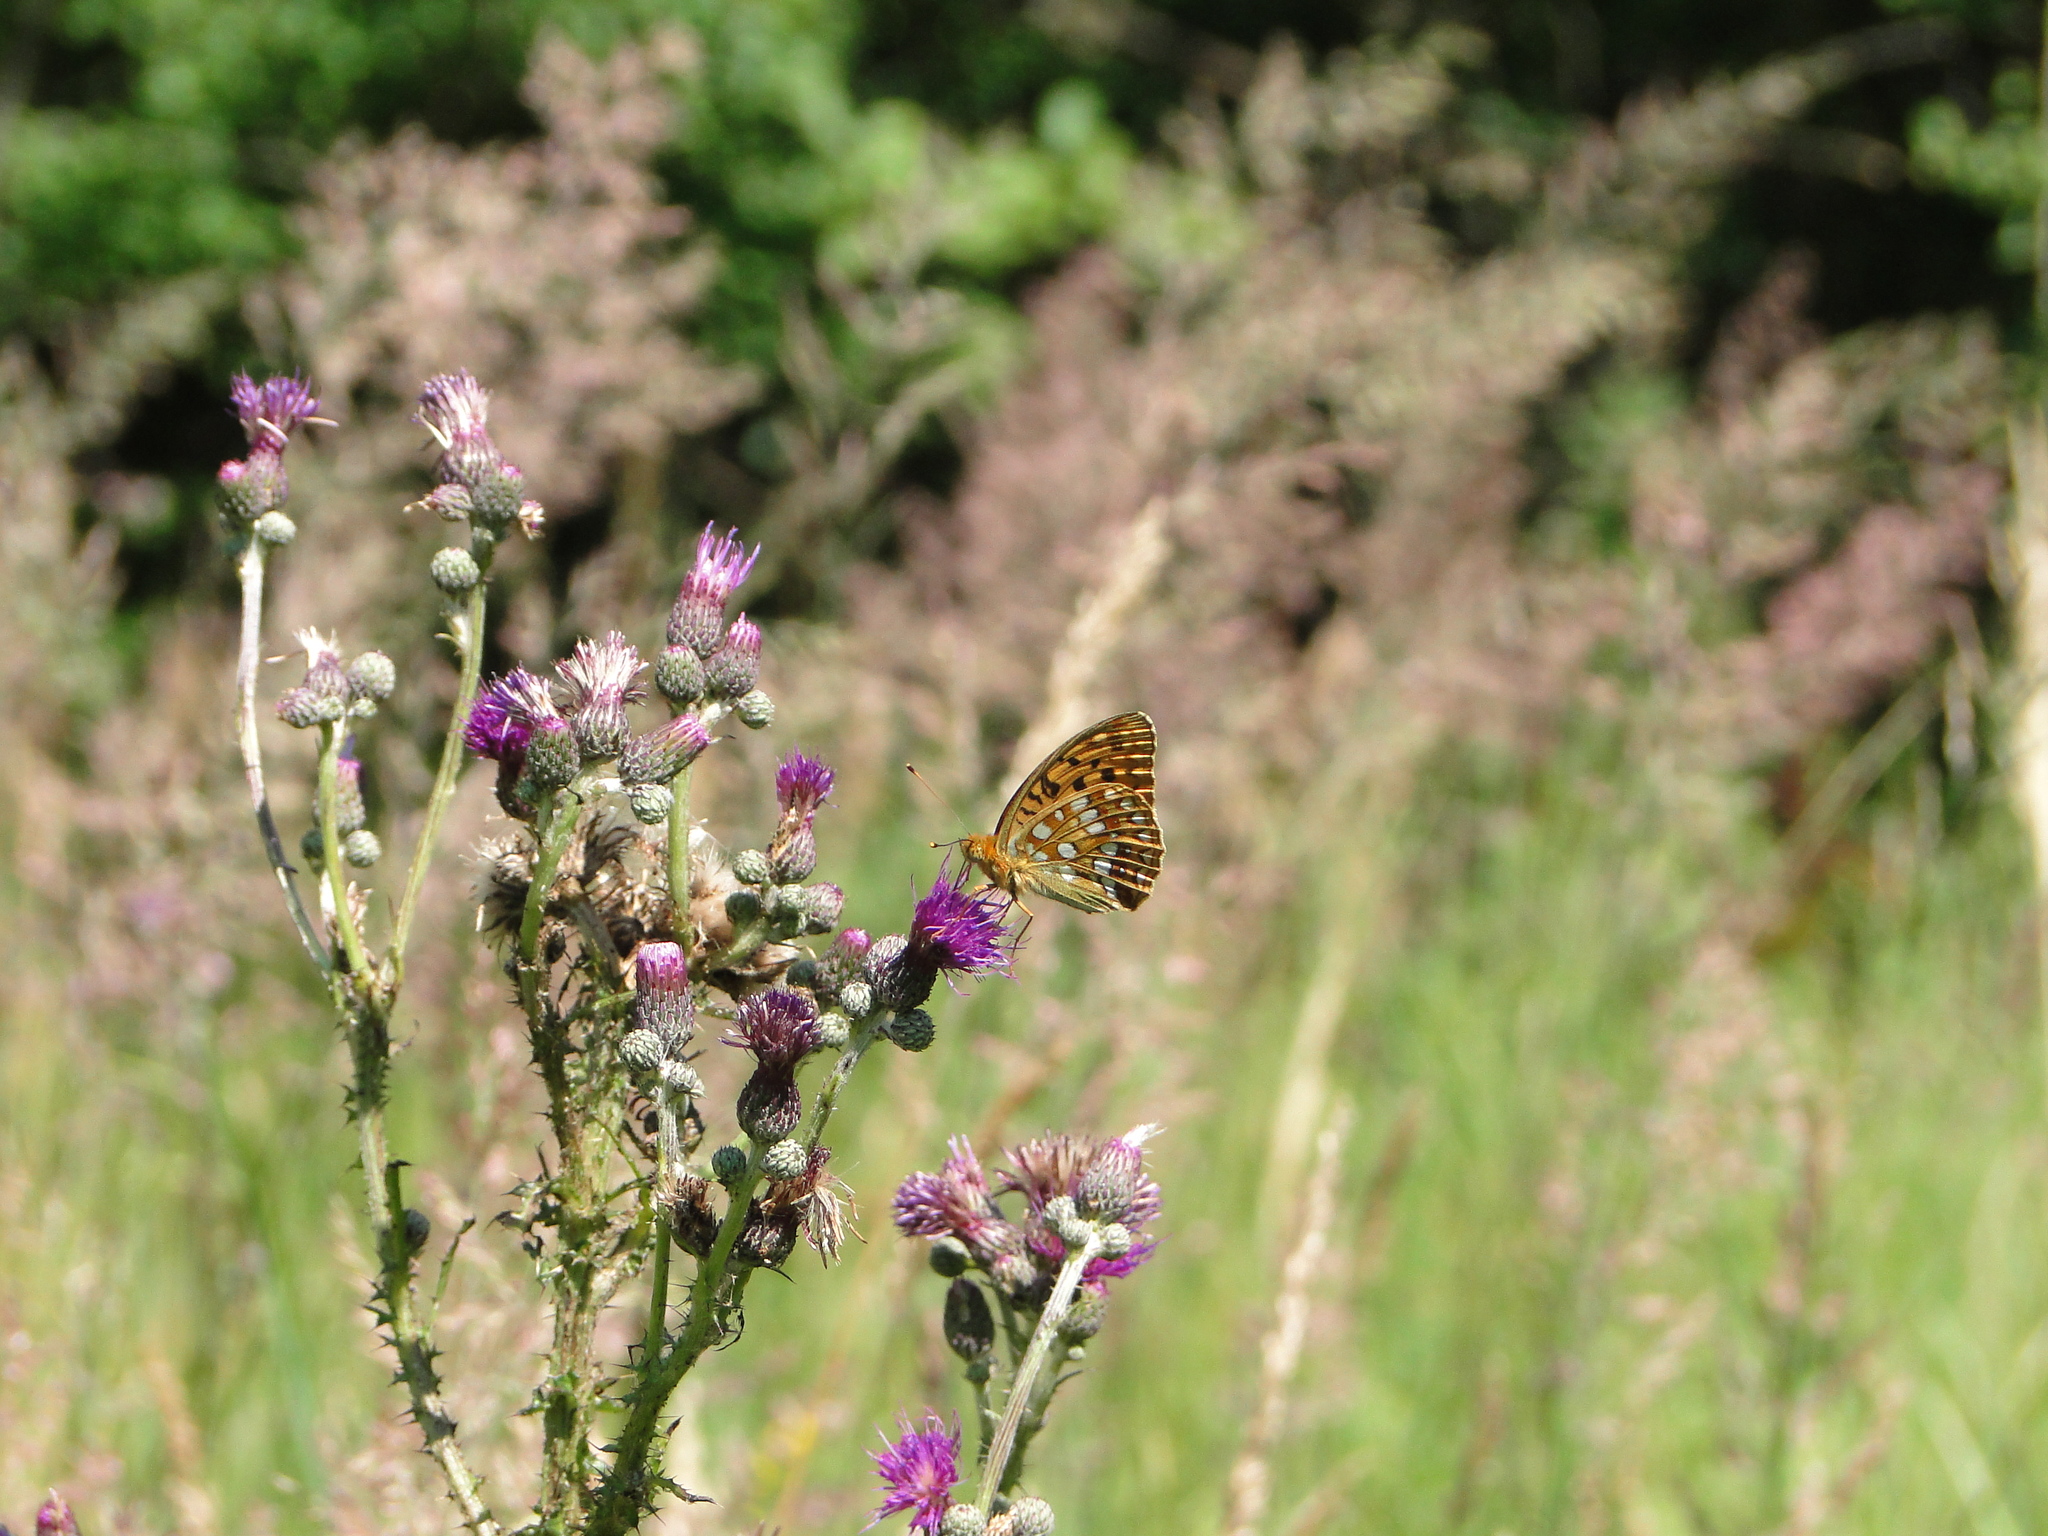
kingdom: Animalia
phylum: Arthropoda
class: Insecta
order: Lepidoptera
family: Nymphalidae
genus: Fabriciana
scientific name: Fabriciana adippe
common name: High brown fritillary
